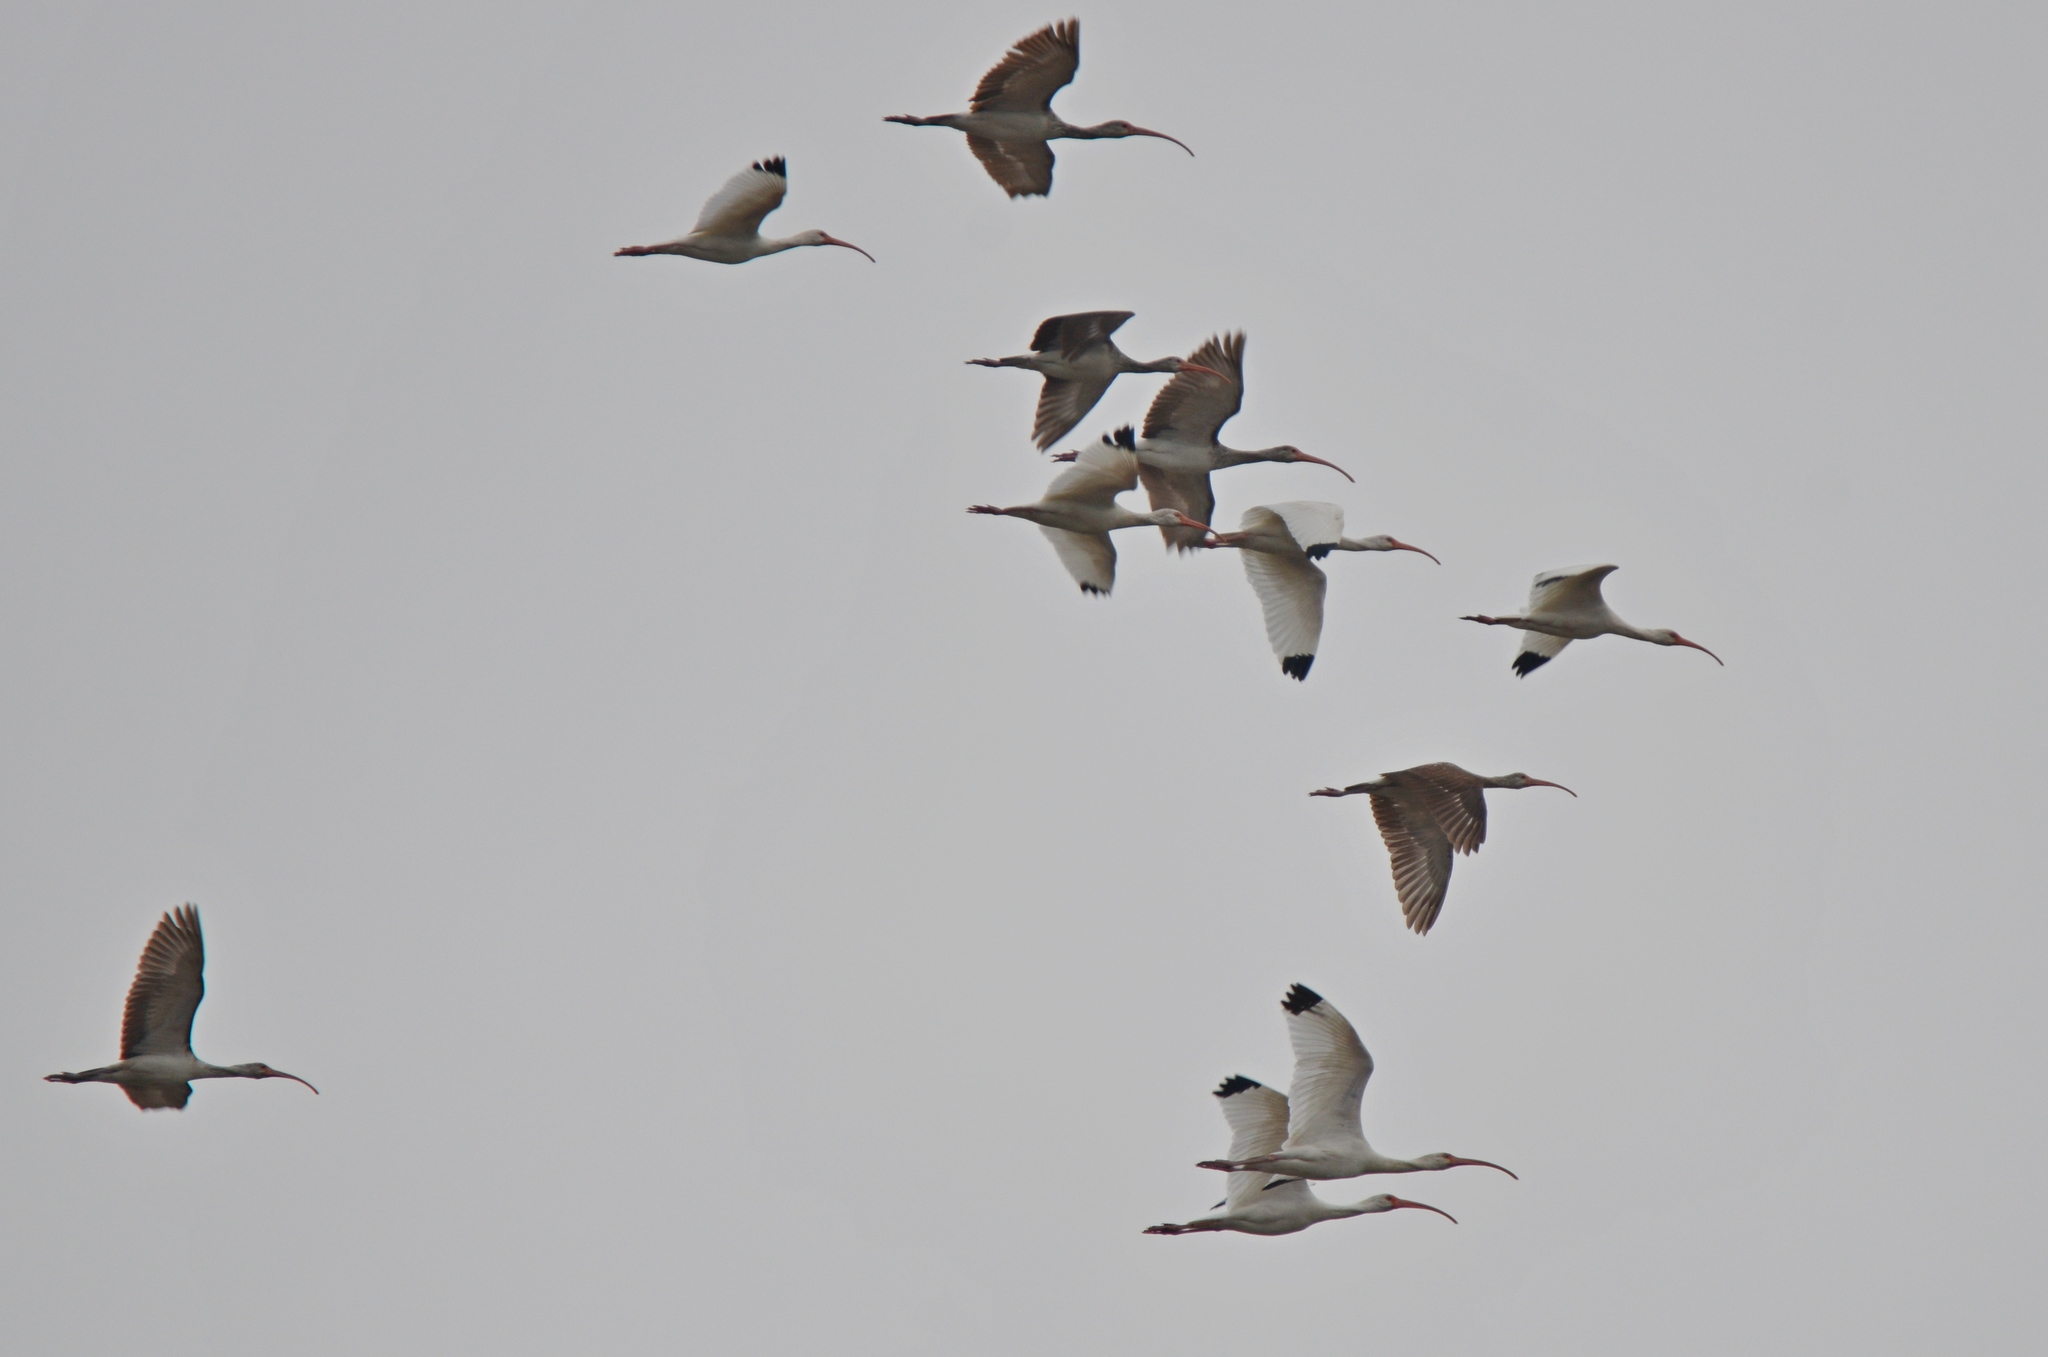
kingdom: Animalia
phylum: Chordata
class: Aves
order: Pelecaniformes
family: Threskiornithidae
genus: Eudocimus
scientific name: Eudocimus albus
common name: White ibis
